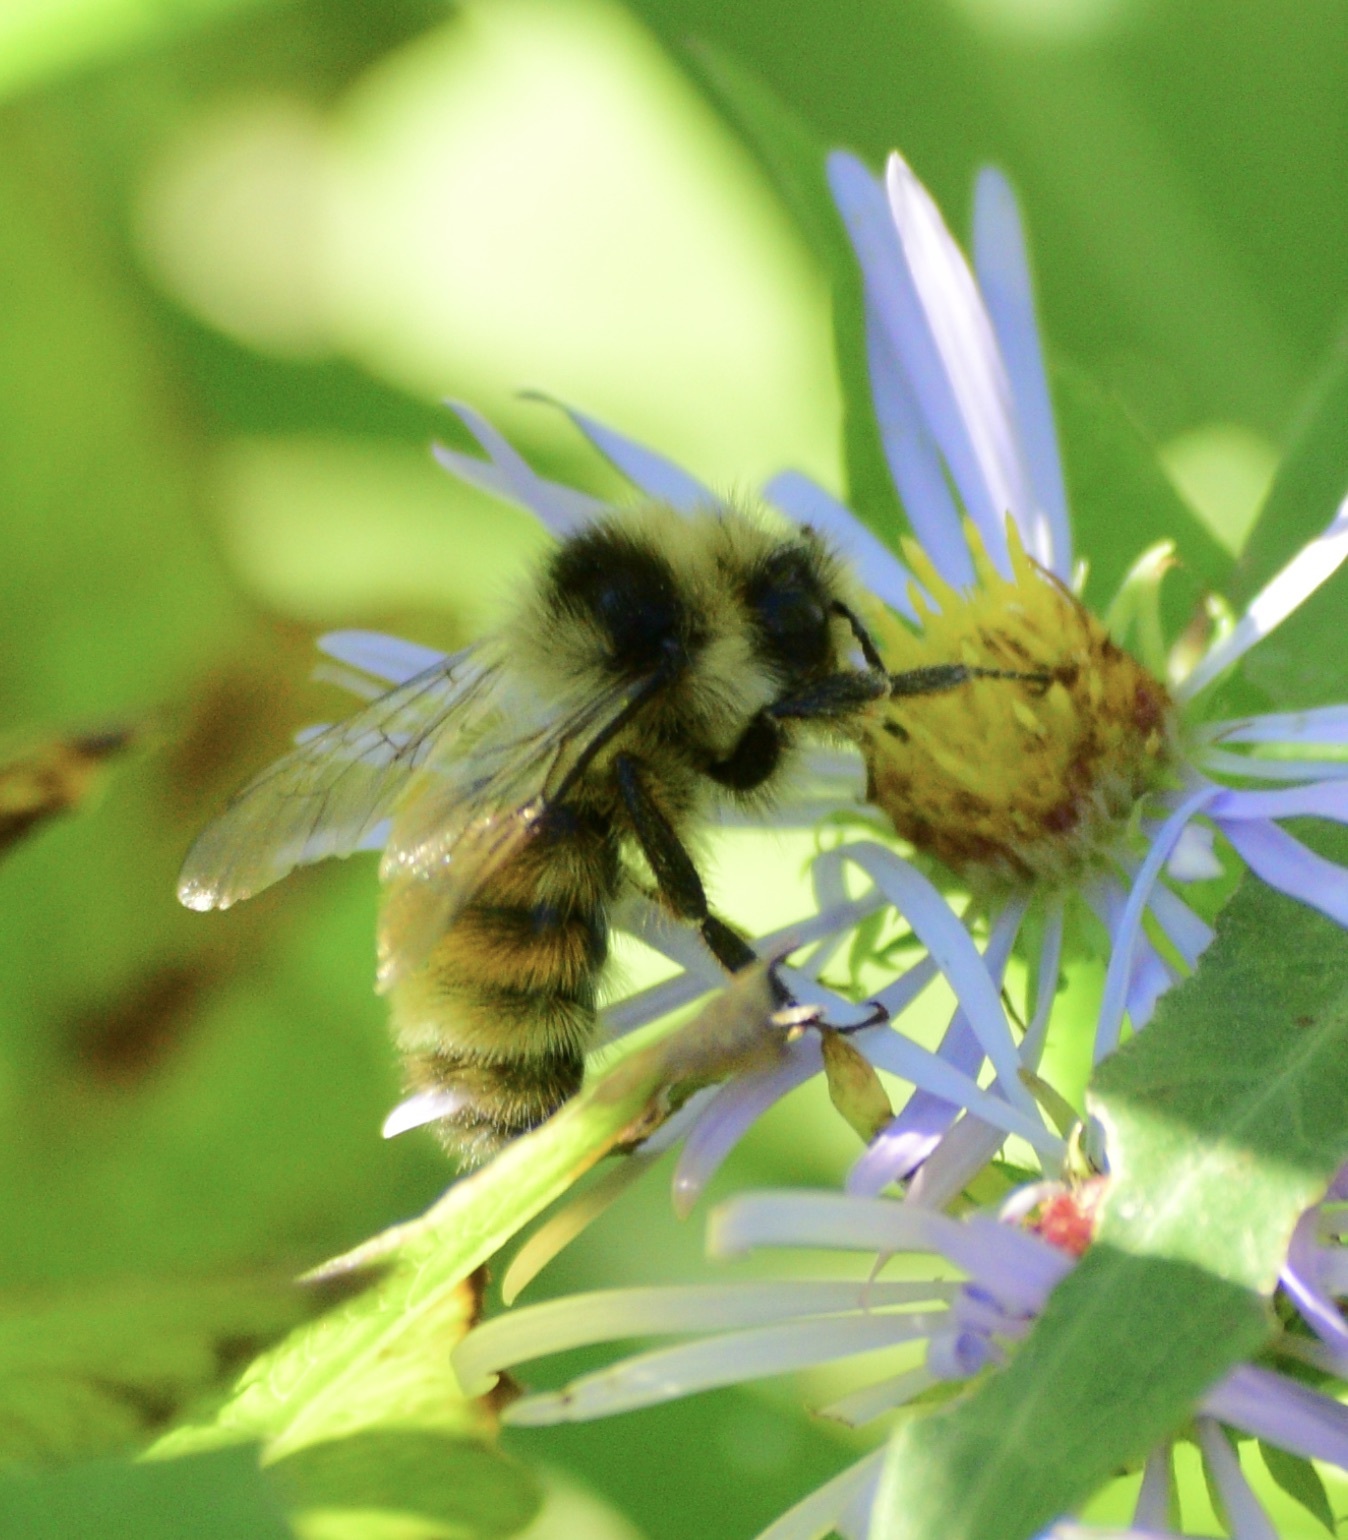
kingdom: Animalia
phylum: Arthropoda
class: Insecta
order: Hymenoptera
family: Apidae
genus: Bombus
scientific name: Bombus ternarius
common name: Tri-colored bumble bee
